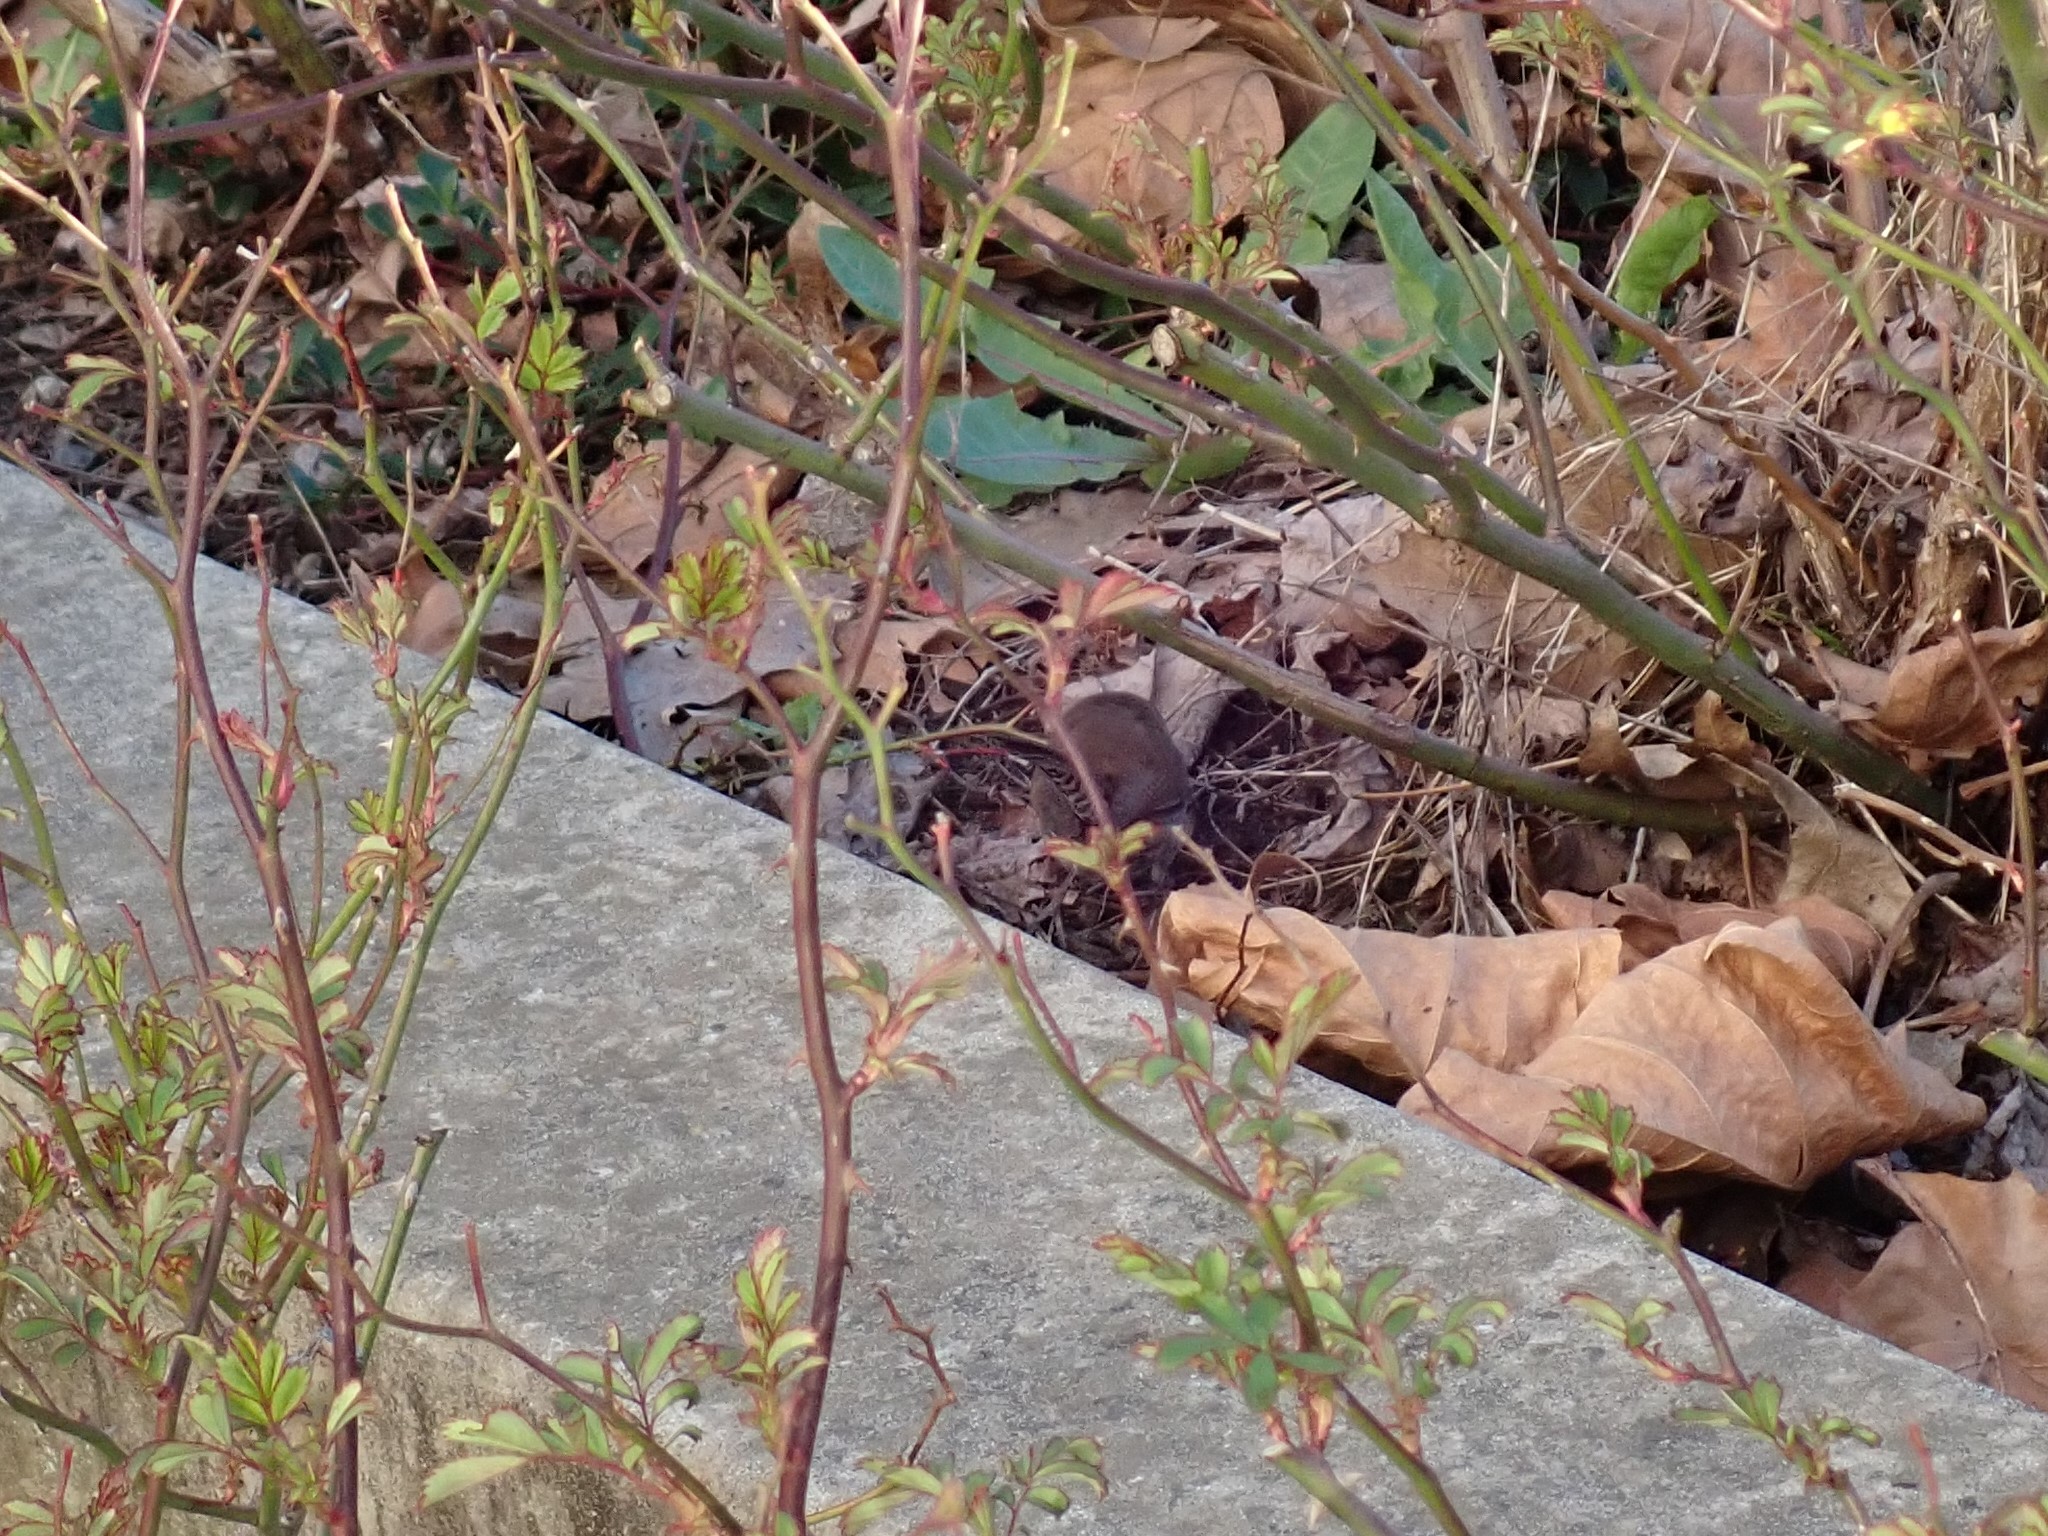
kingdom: Animalia
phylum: Chordata
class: Aves
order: Passeriformes
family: Troglodytidae
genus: Thryomanes
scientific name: Thryomanes bewickii
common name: Bewick's wren
